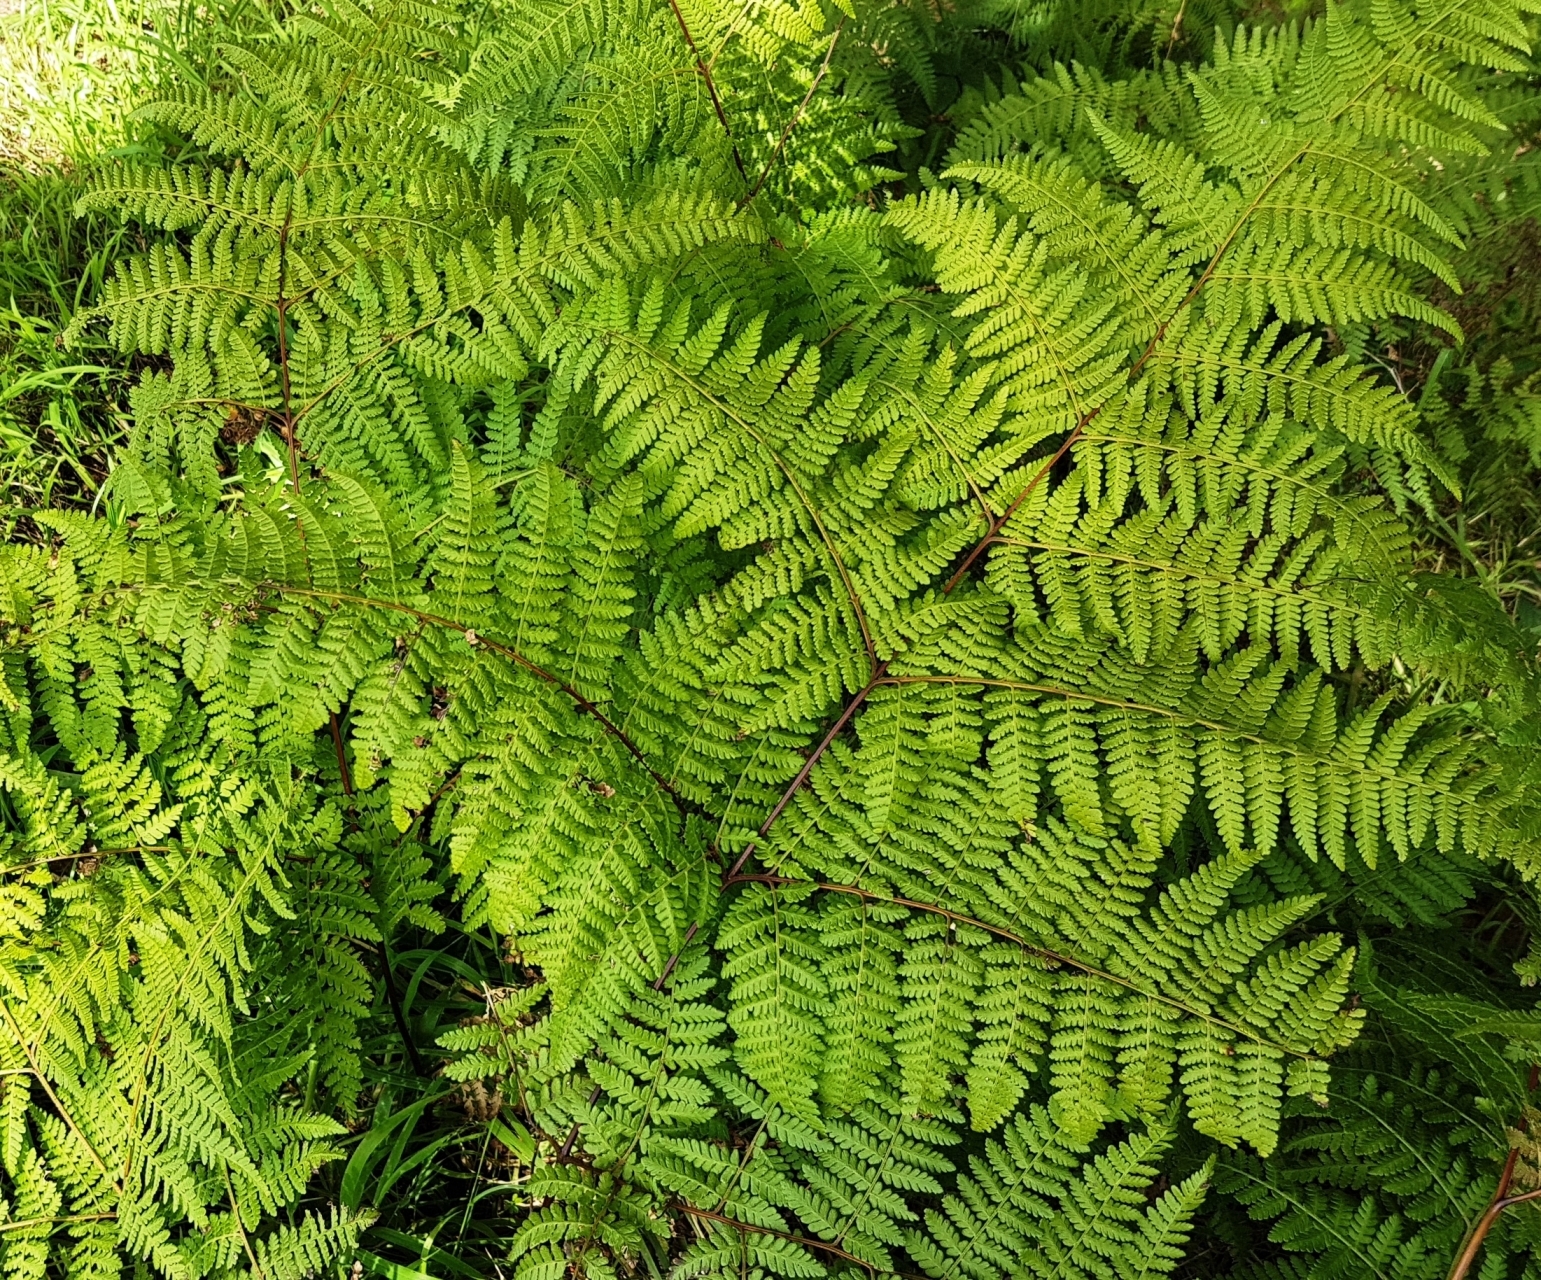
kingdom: Plantae
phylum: Tracheophyta
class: Polypodiopsida
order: Polypodiales
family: Dennstaedtiaceae
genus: Hypolepis
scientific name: Hypolepis ambigua
